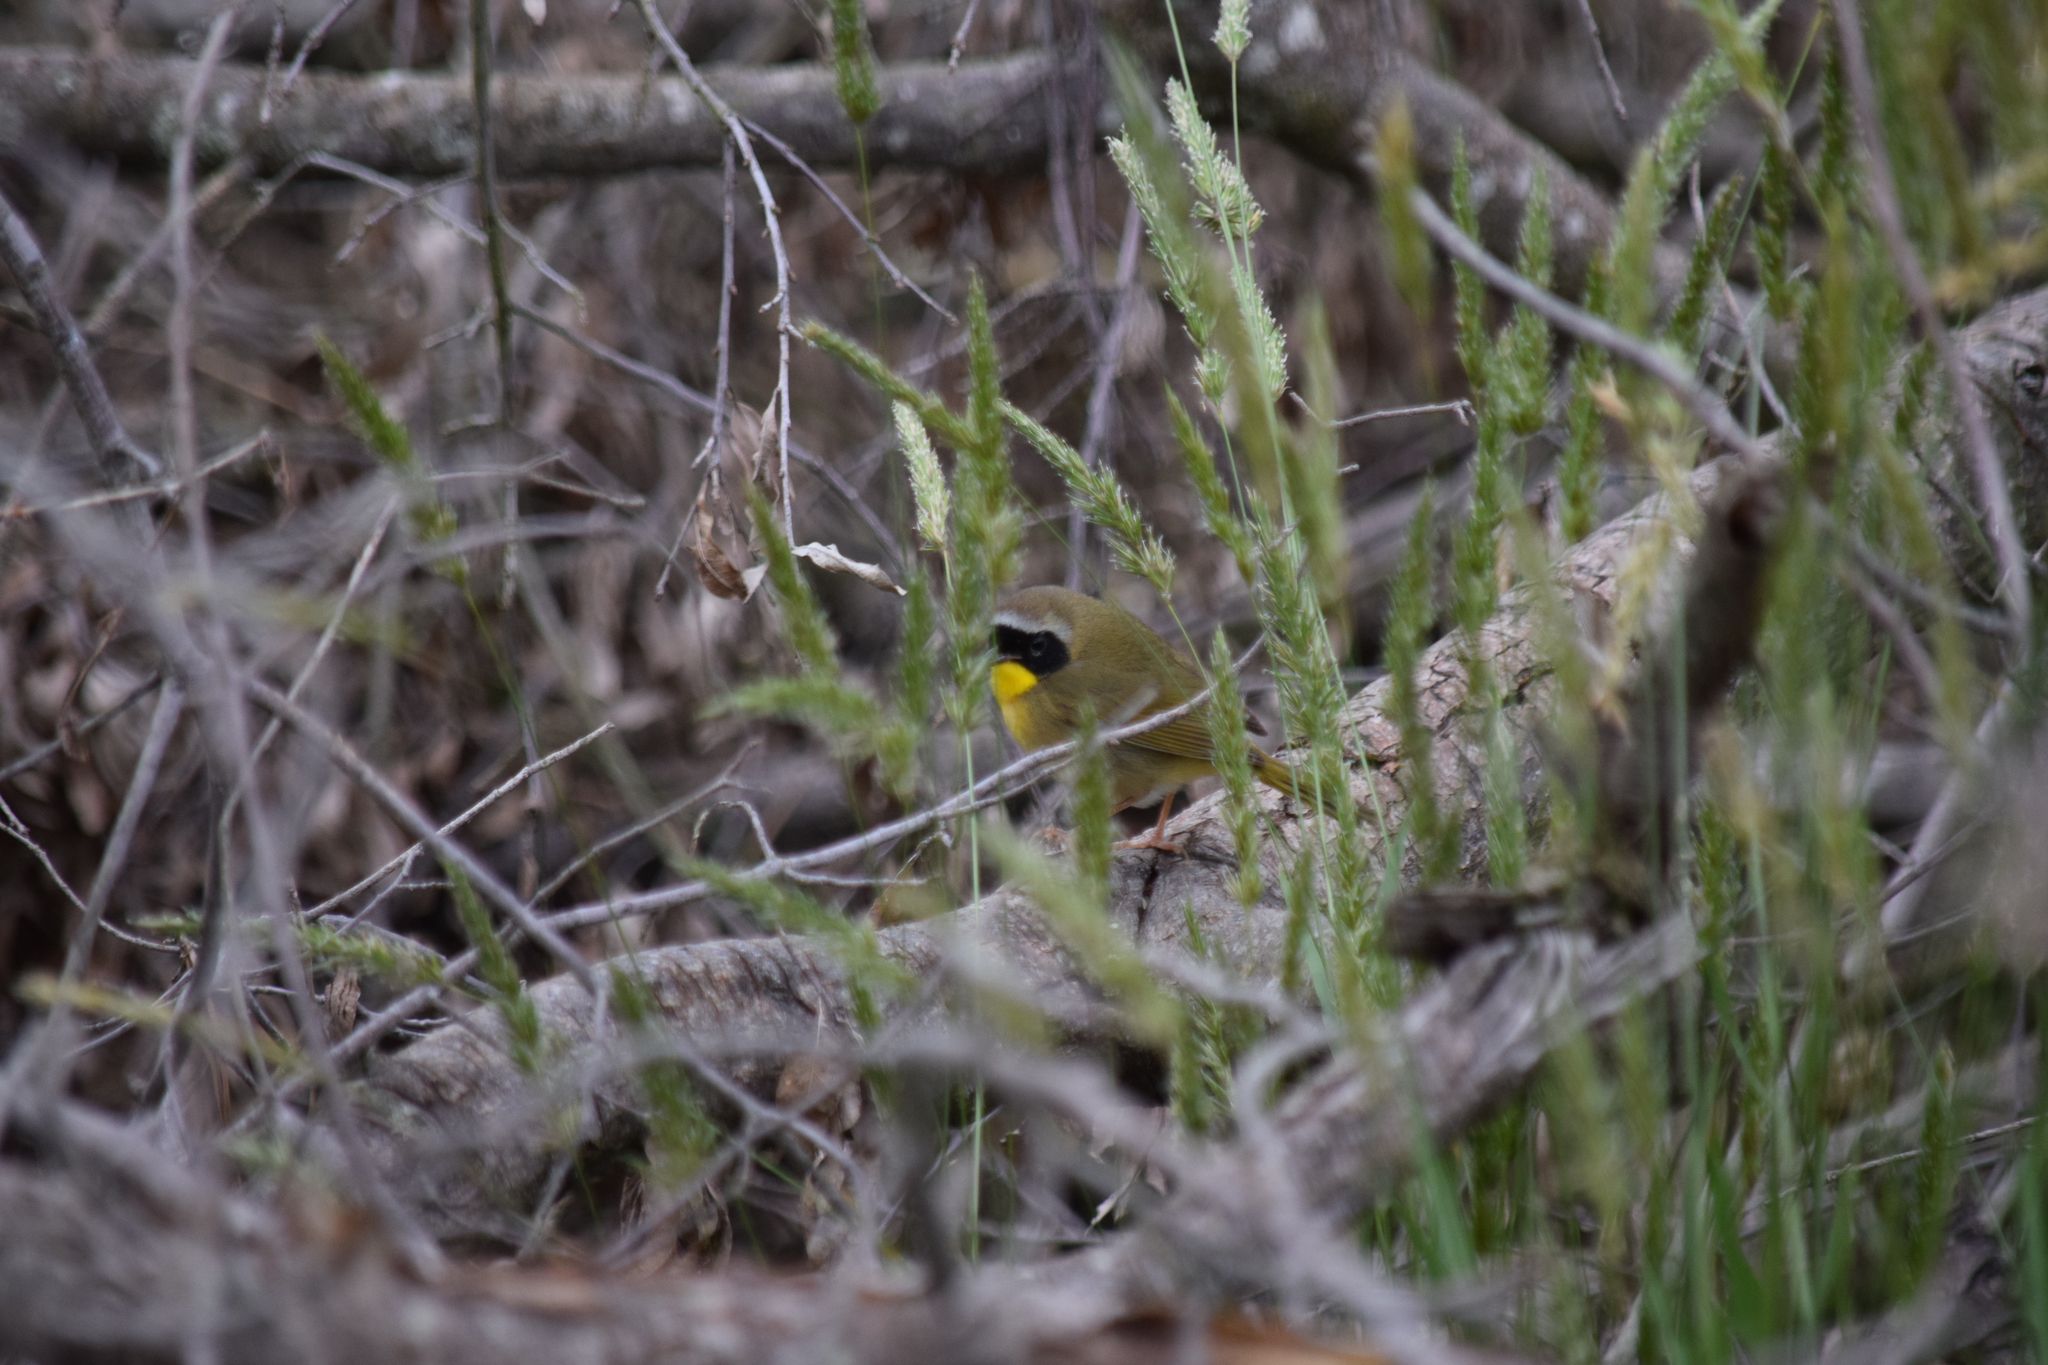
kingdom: Animalia
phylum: Chordata
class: Aves
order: Passeriformes
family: Parulidae
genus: Geothlypis
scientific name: Geothlypis trichas
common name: Common yellowthroat
